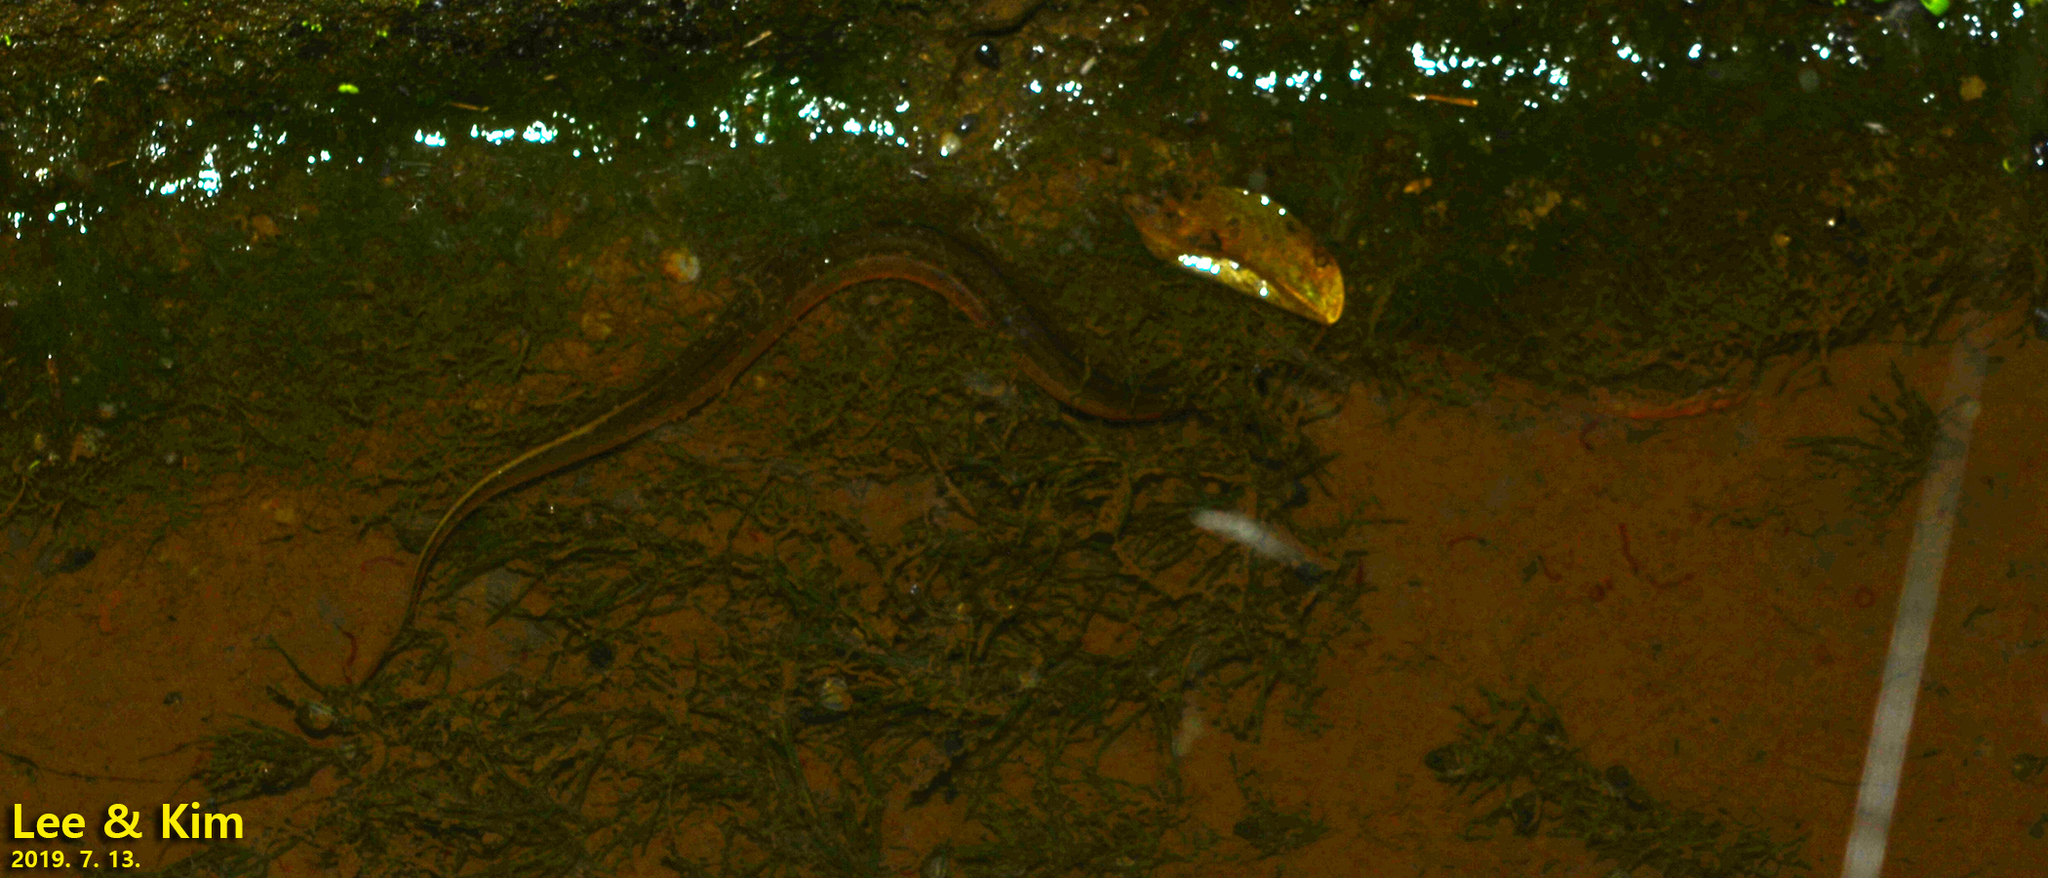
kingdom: Animalia
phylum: Chordata
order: Synbranchiformes
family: Synbranchidae
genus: Monopterus
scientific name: Monopterus albus
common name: Asian swamp eel
